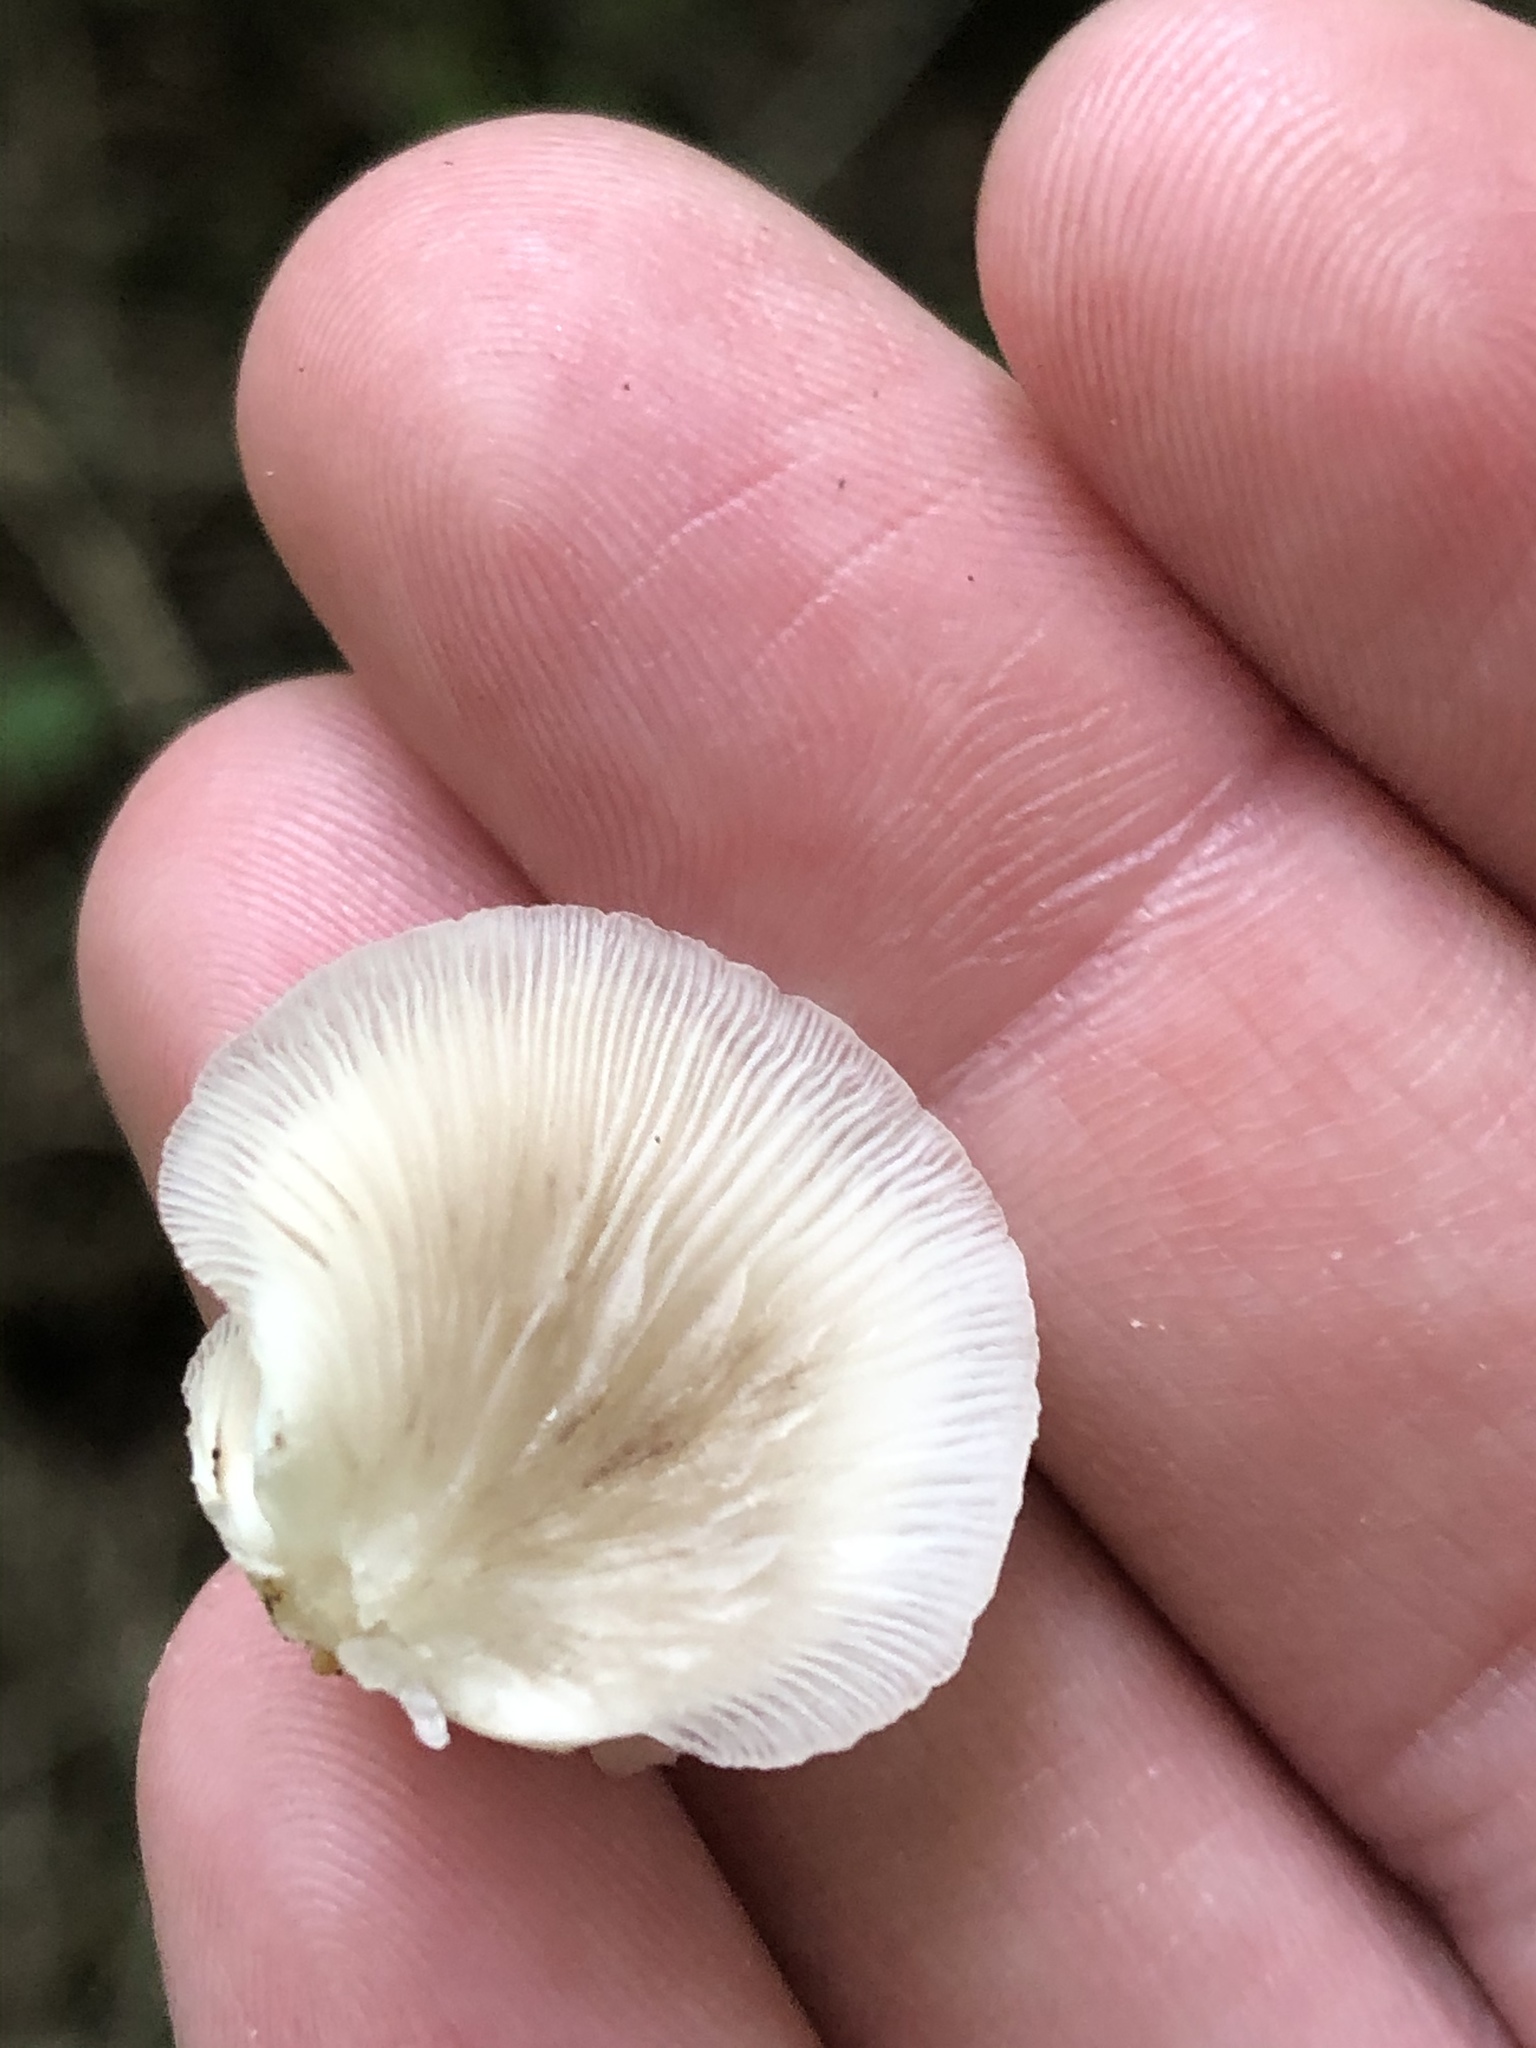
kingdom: Fungi
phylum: Basidiomycota
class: Agaricomycetes
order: Agaricales
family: Crepidotaceae
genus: Crepidotus
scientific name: Crepidotus applanatus
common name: Flat crep
